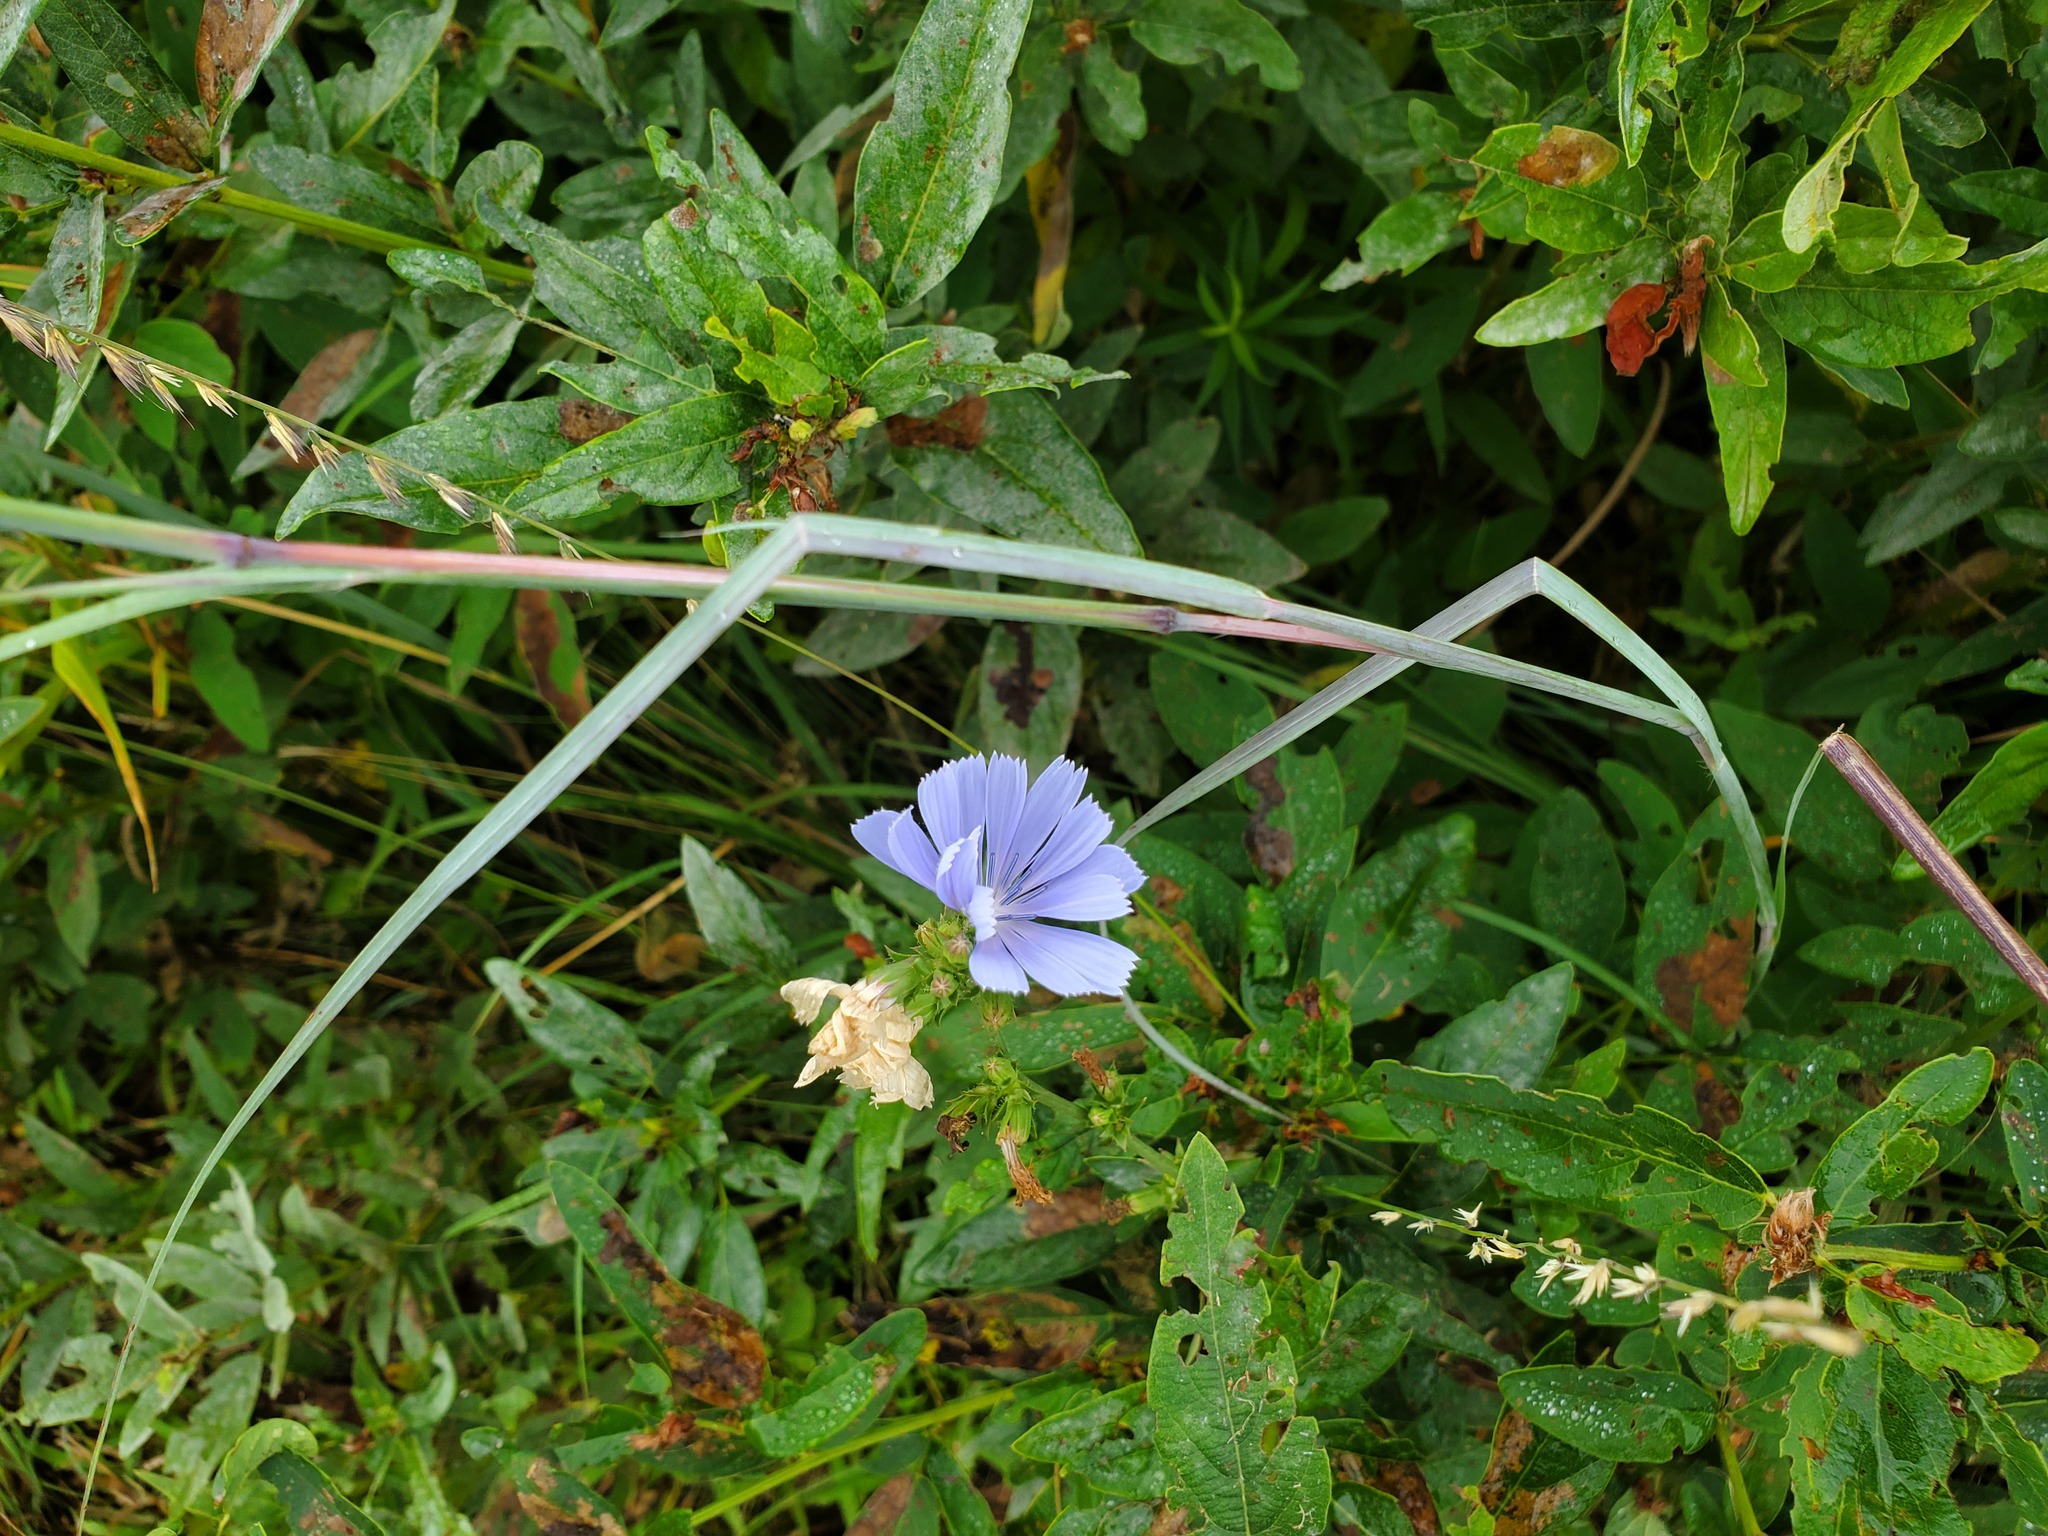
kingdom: Plantae
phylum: Tracheophyta
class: Magnoliopsida
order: Asterales
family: Asteraceae
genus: Cichorium
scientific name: Cichorium intybus
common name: Chicory
